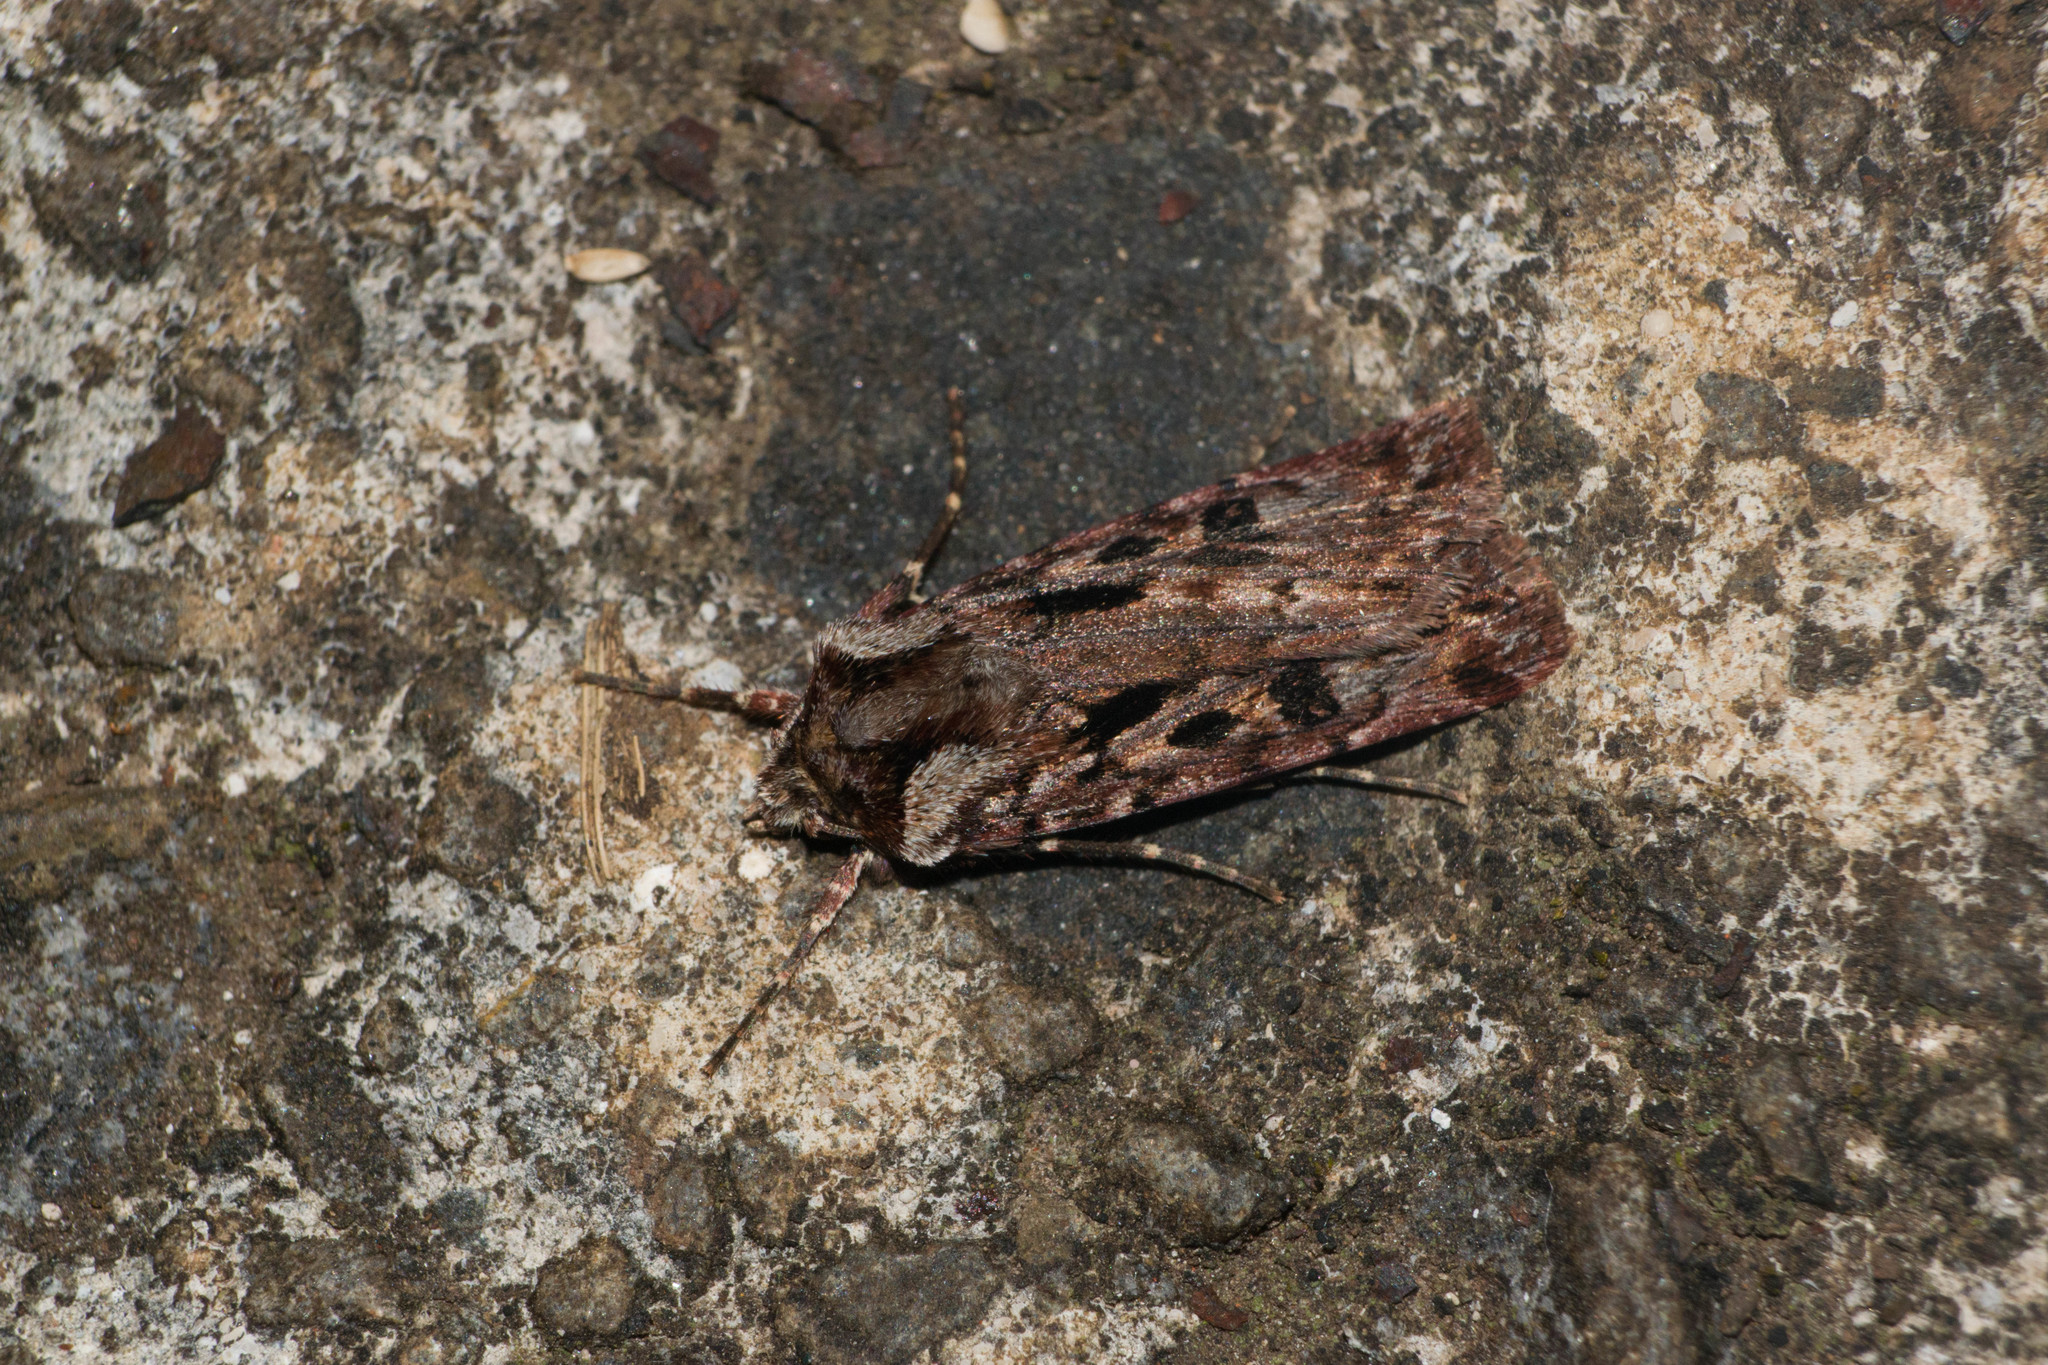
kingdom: Animalia
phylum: Arthropoda
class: Insecta
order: Lepidoptera
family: Noctuidae
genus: Agrotis
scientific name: Agrotis charmocrita
